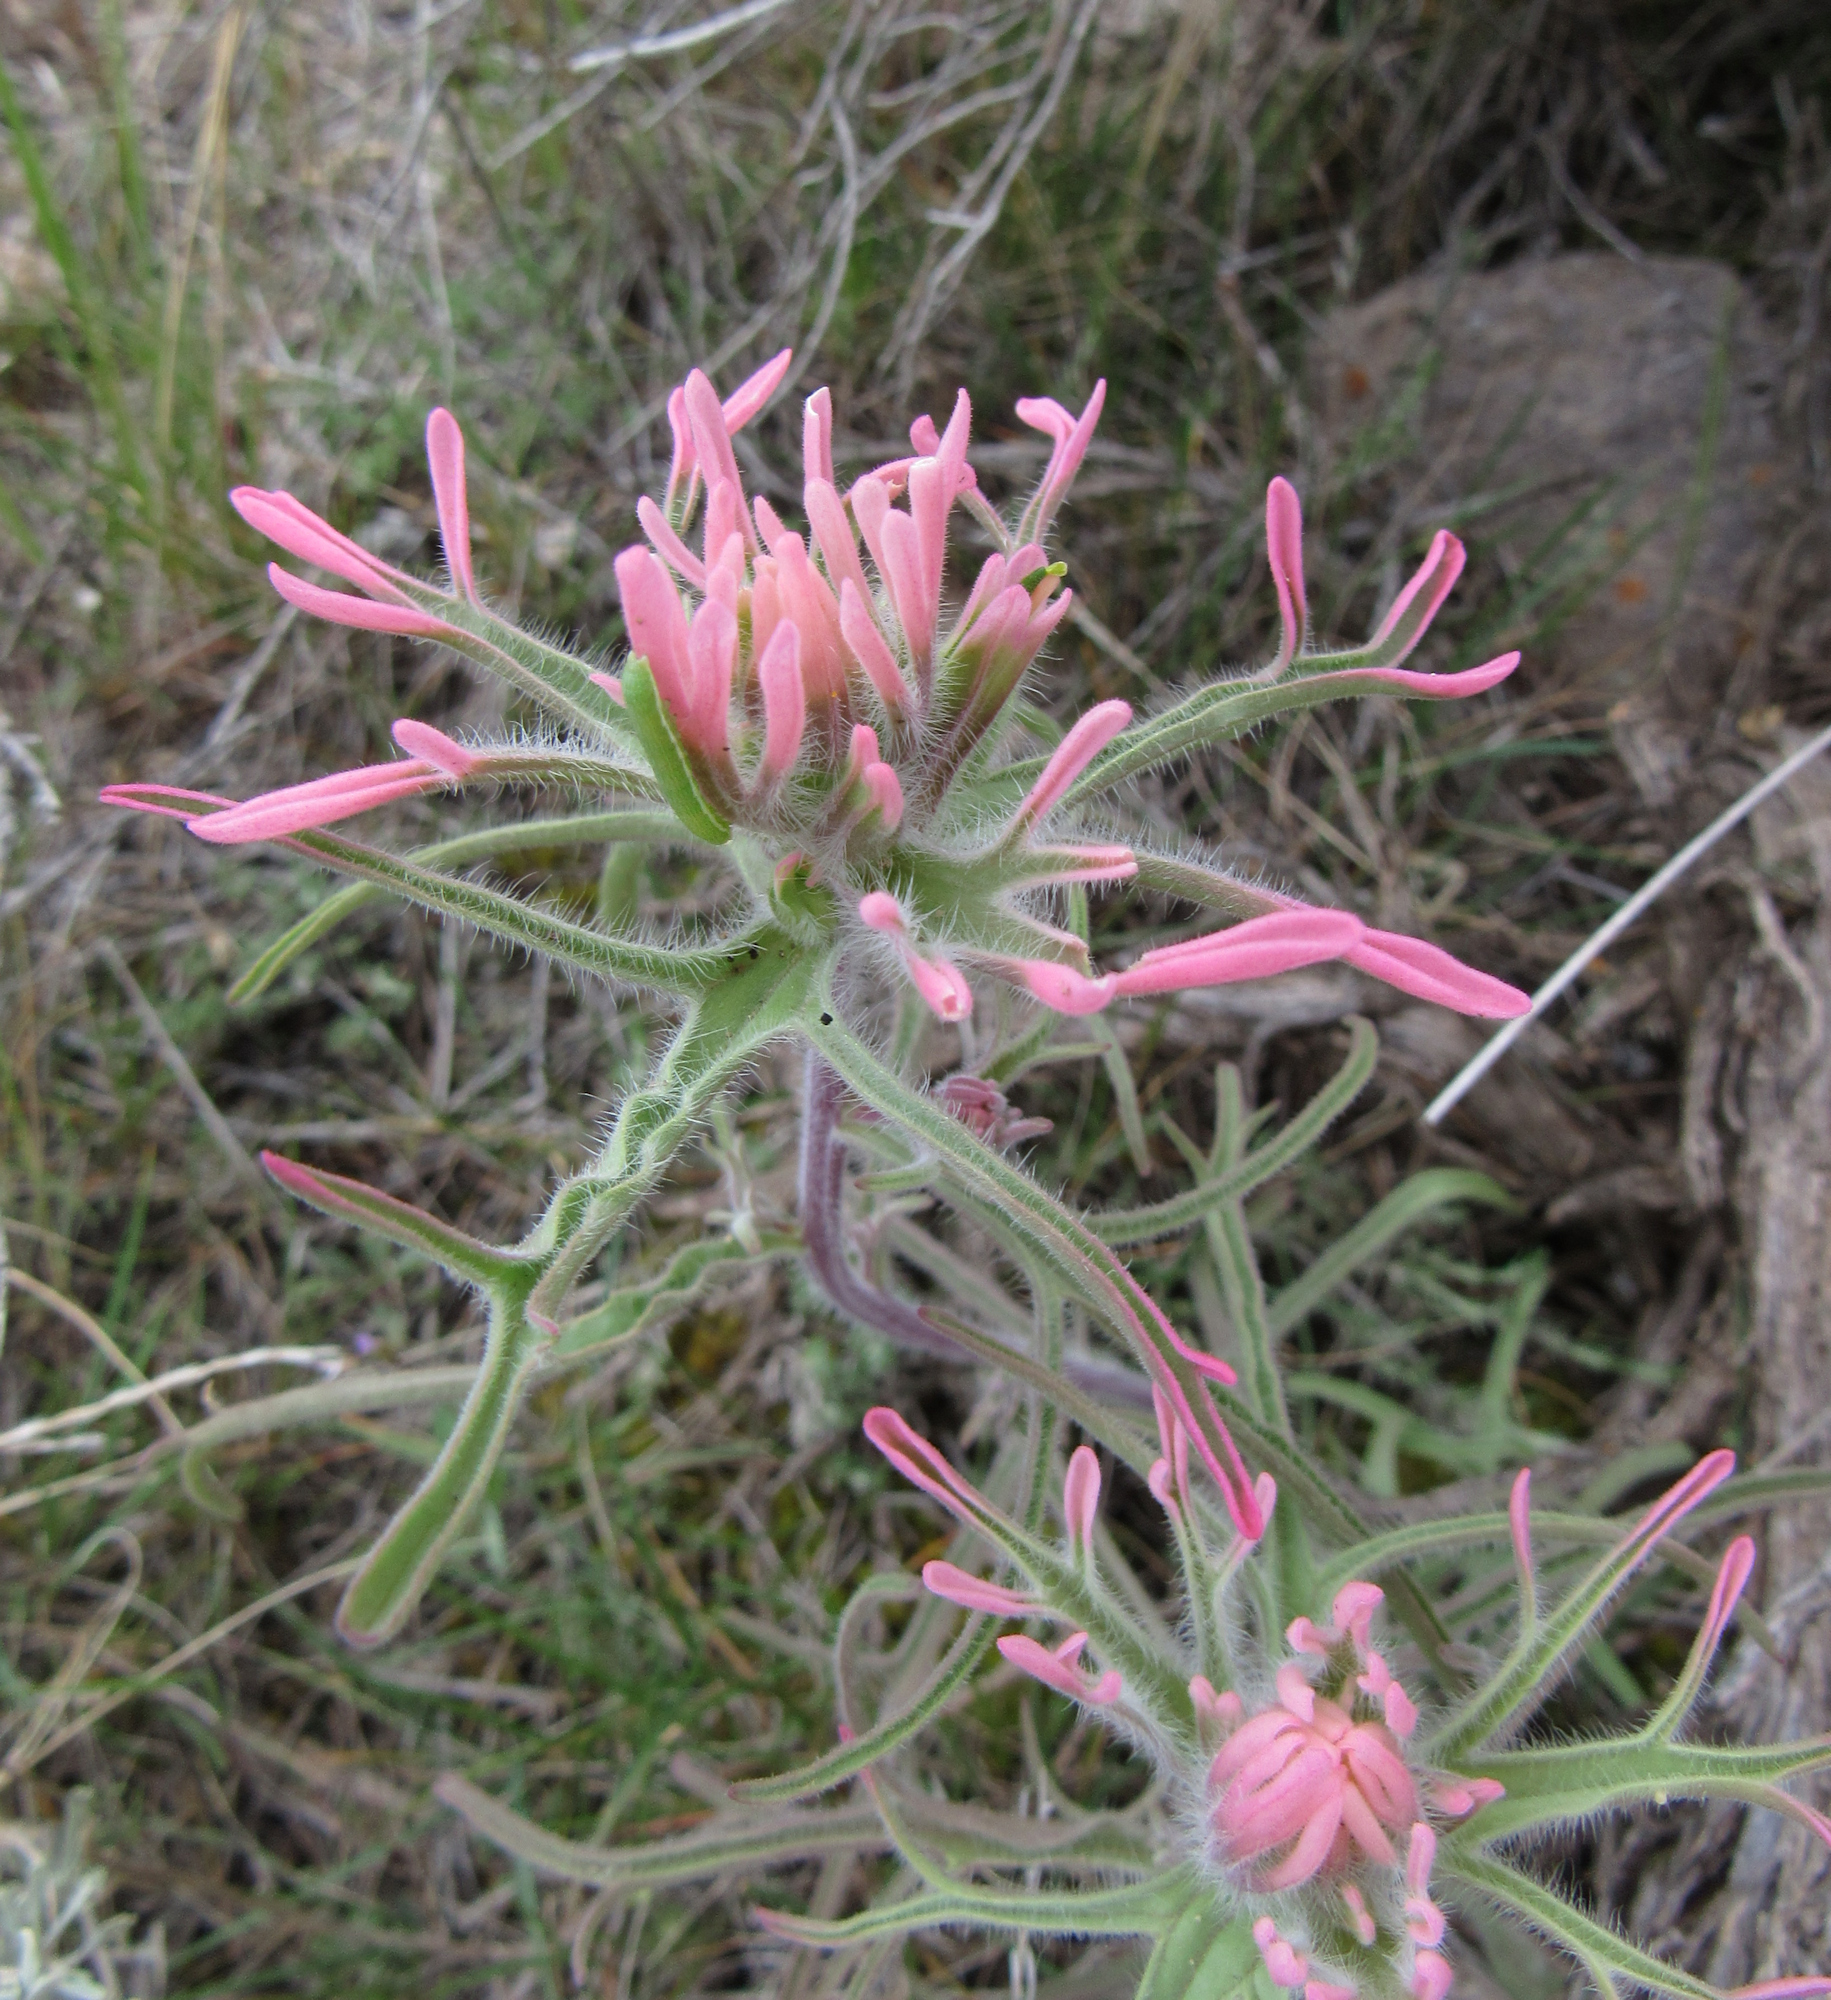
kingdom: Plantae
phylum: Tracheophyta
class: Magnoliopsida
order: Lamiales
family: Orobanchaceae
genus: Castilleja
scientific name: Castilleja angustifolia
